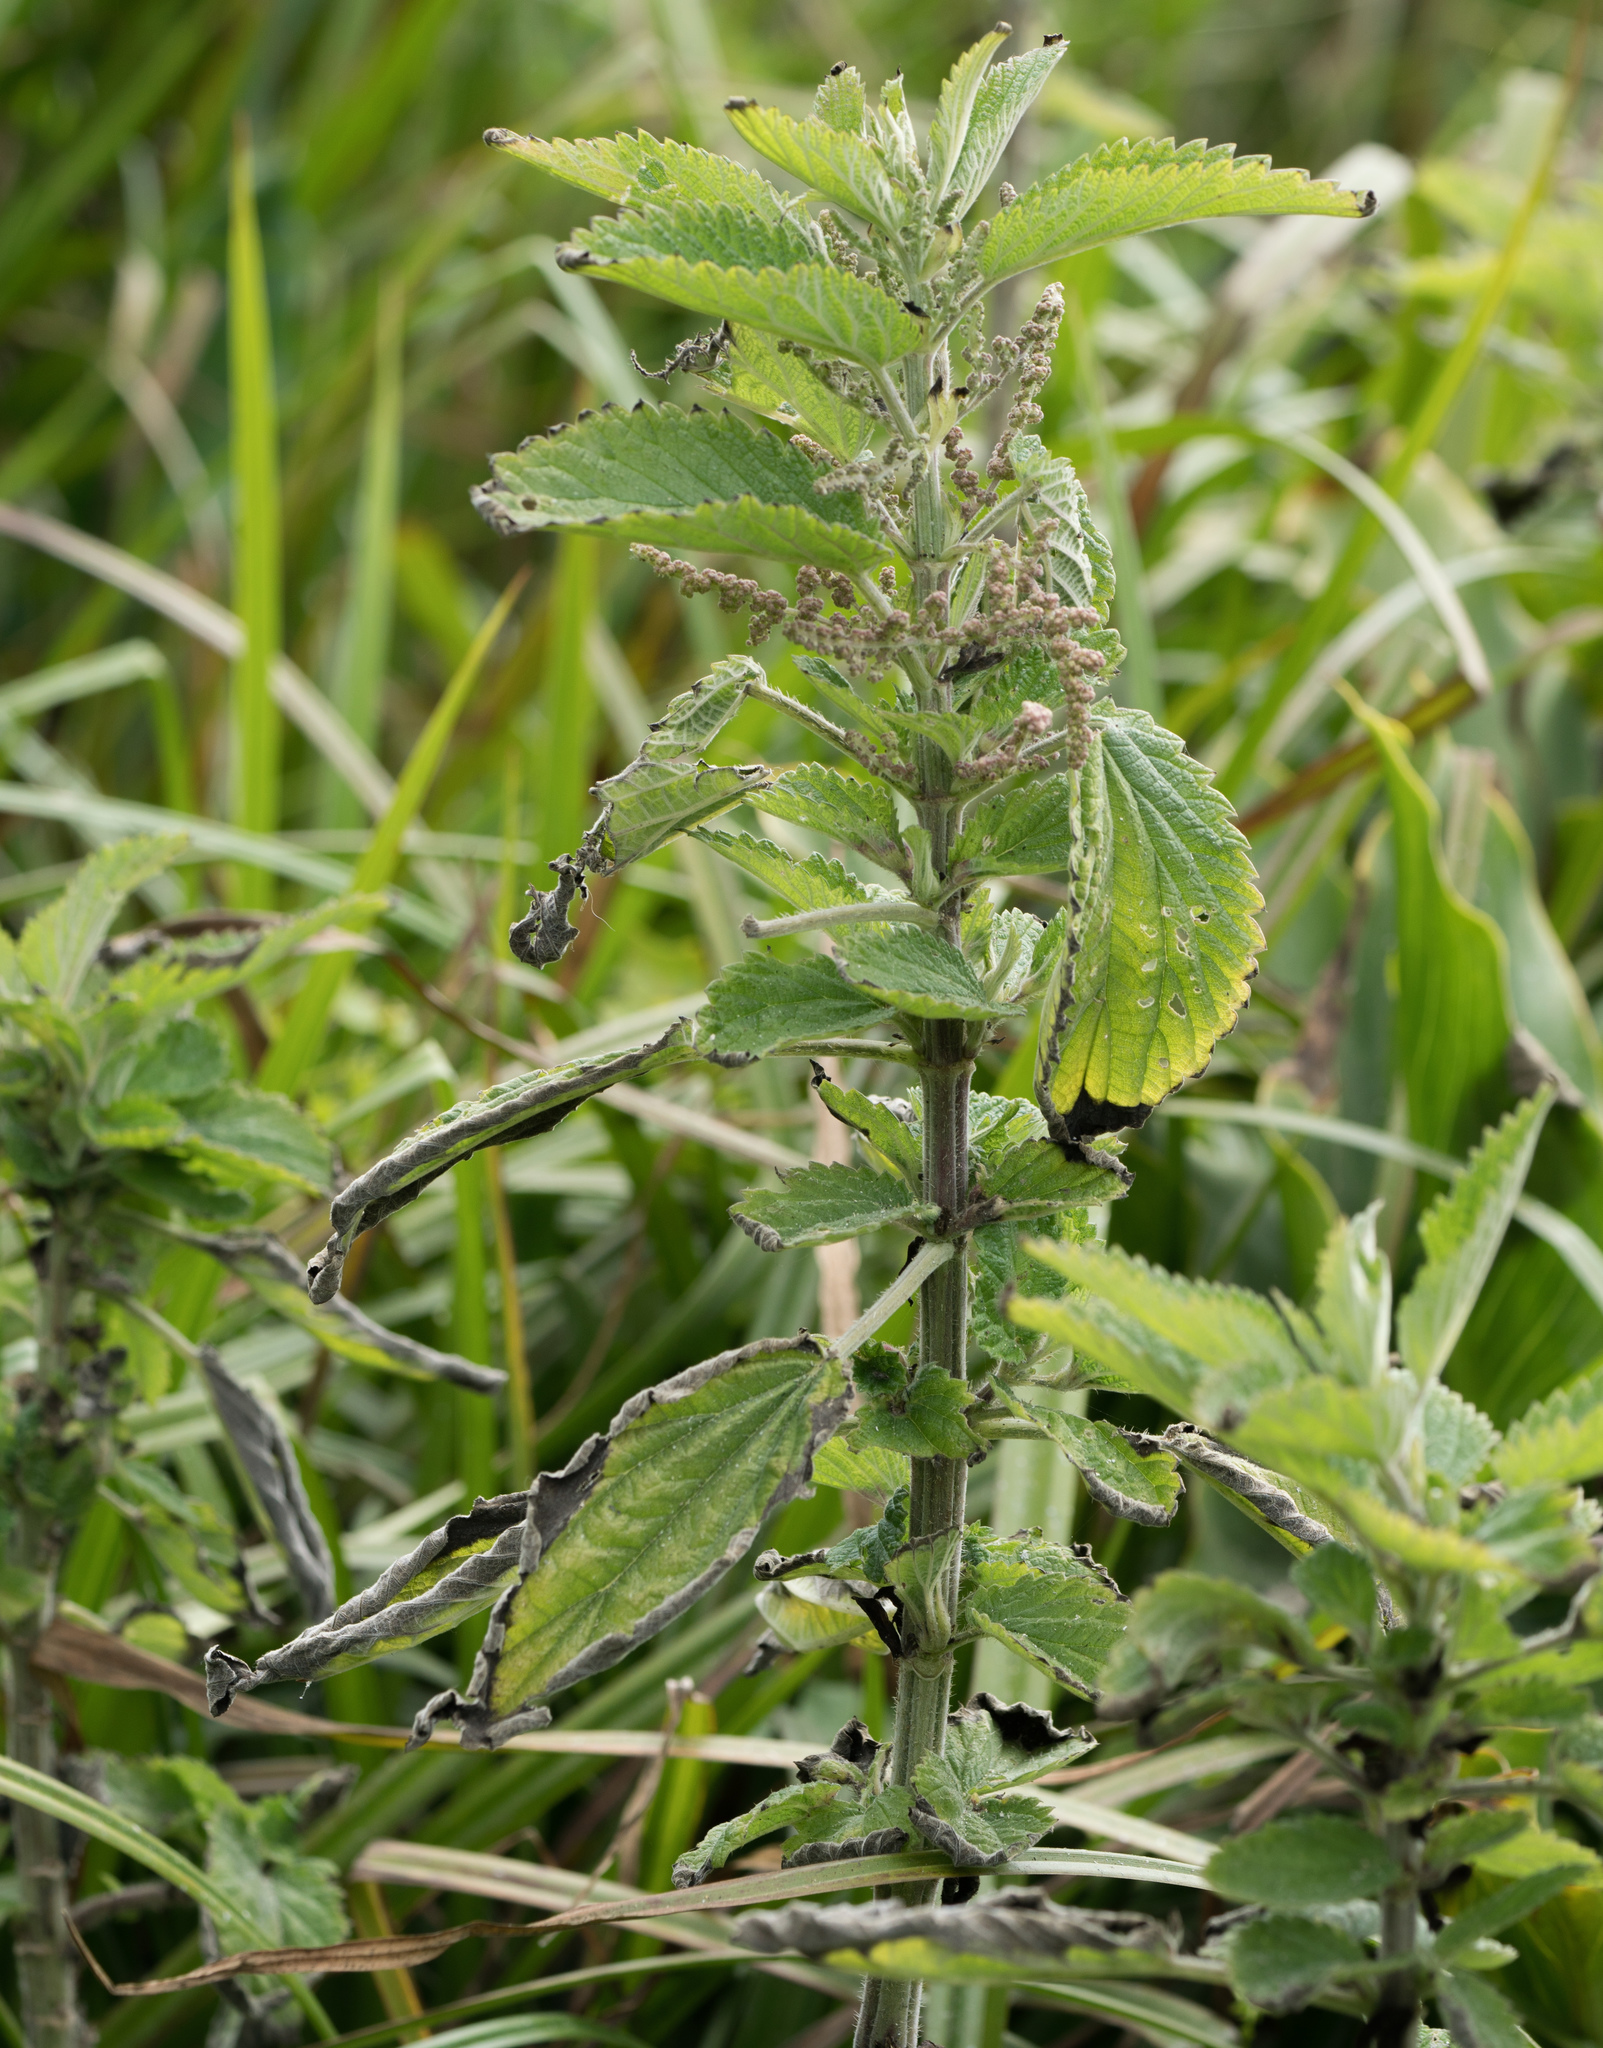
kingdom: Plantae
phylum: Tracheophyta
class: Magnoliopsida
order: Rosales
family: Urticaceae
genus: Urtica
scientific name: Urtica dioica
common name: Common nettle
